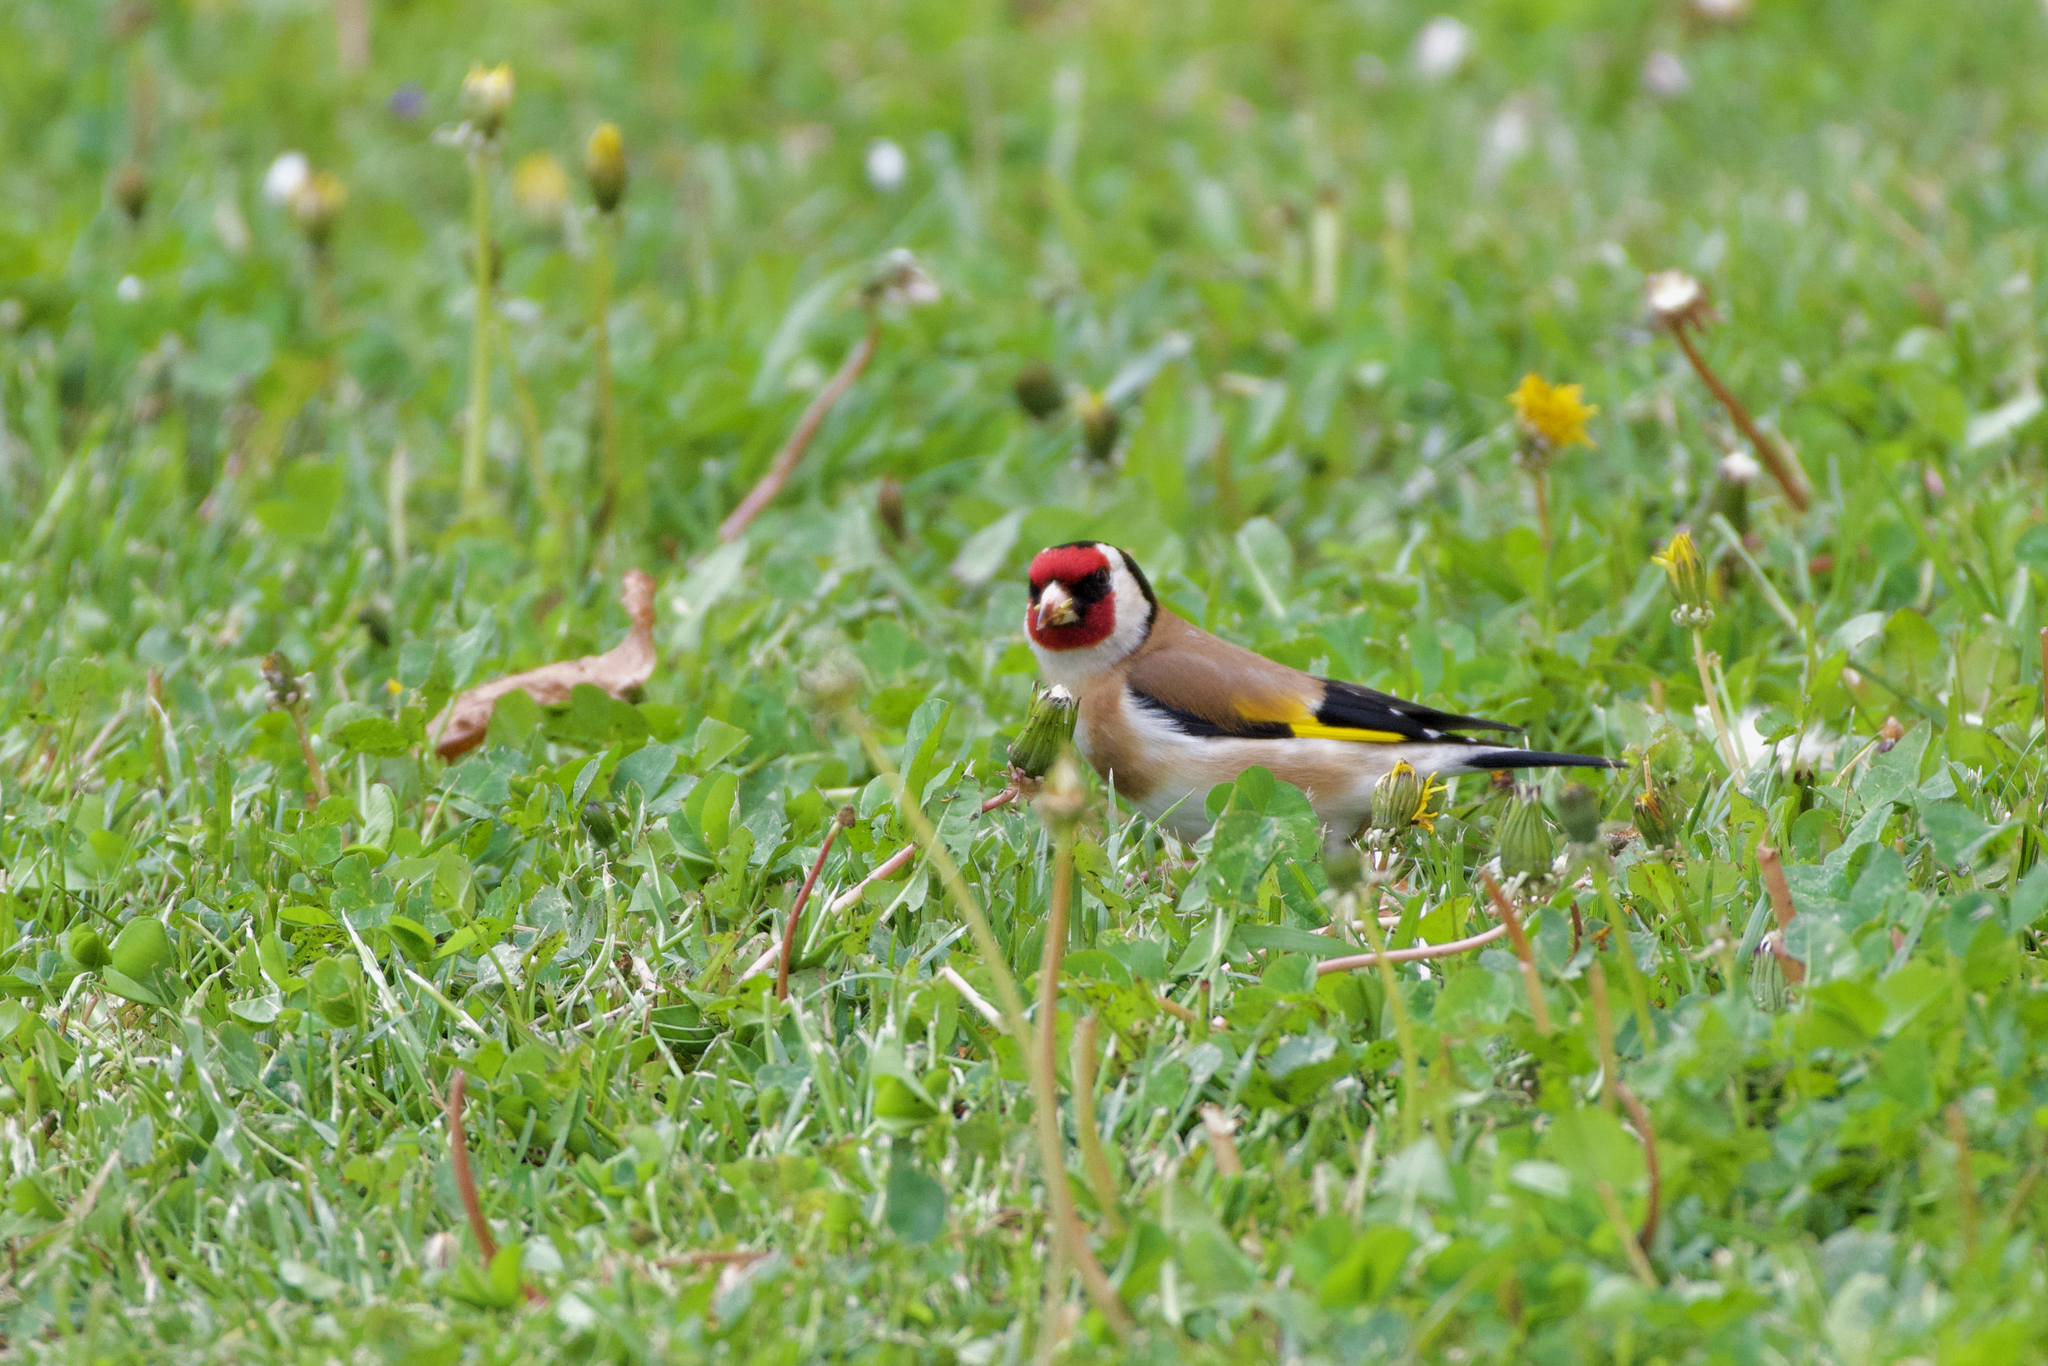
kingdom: Animalia
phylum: Chordata
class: Aves
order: Passeriformes
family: Fringillidae
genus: Carduelis
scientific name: Carduelis carduelis
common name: European goldfinch
